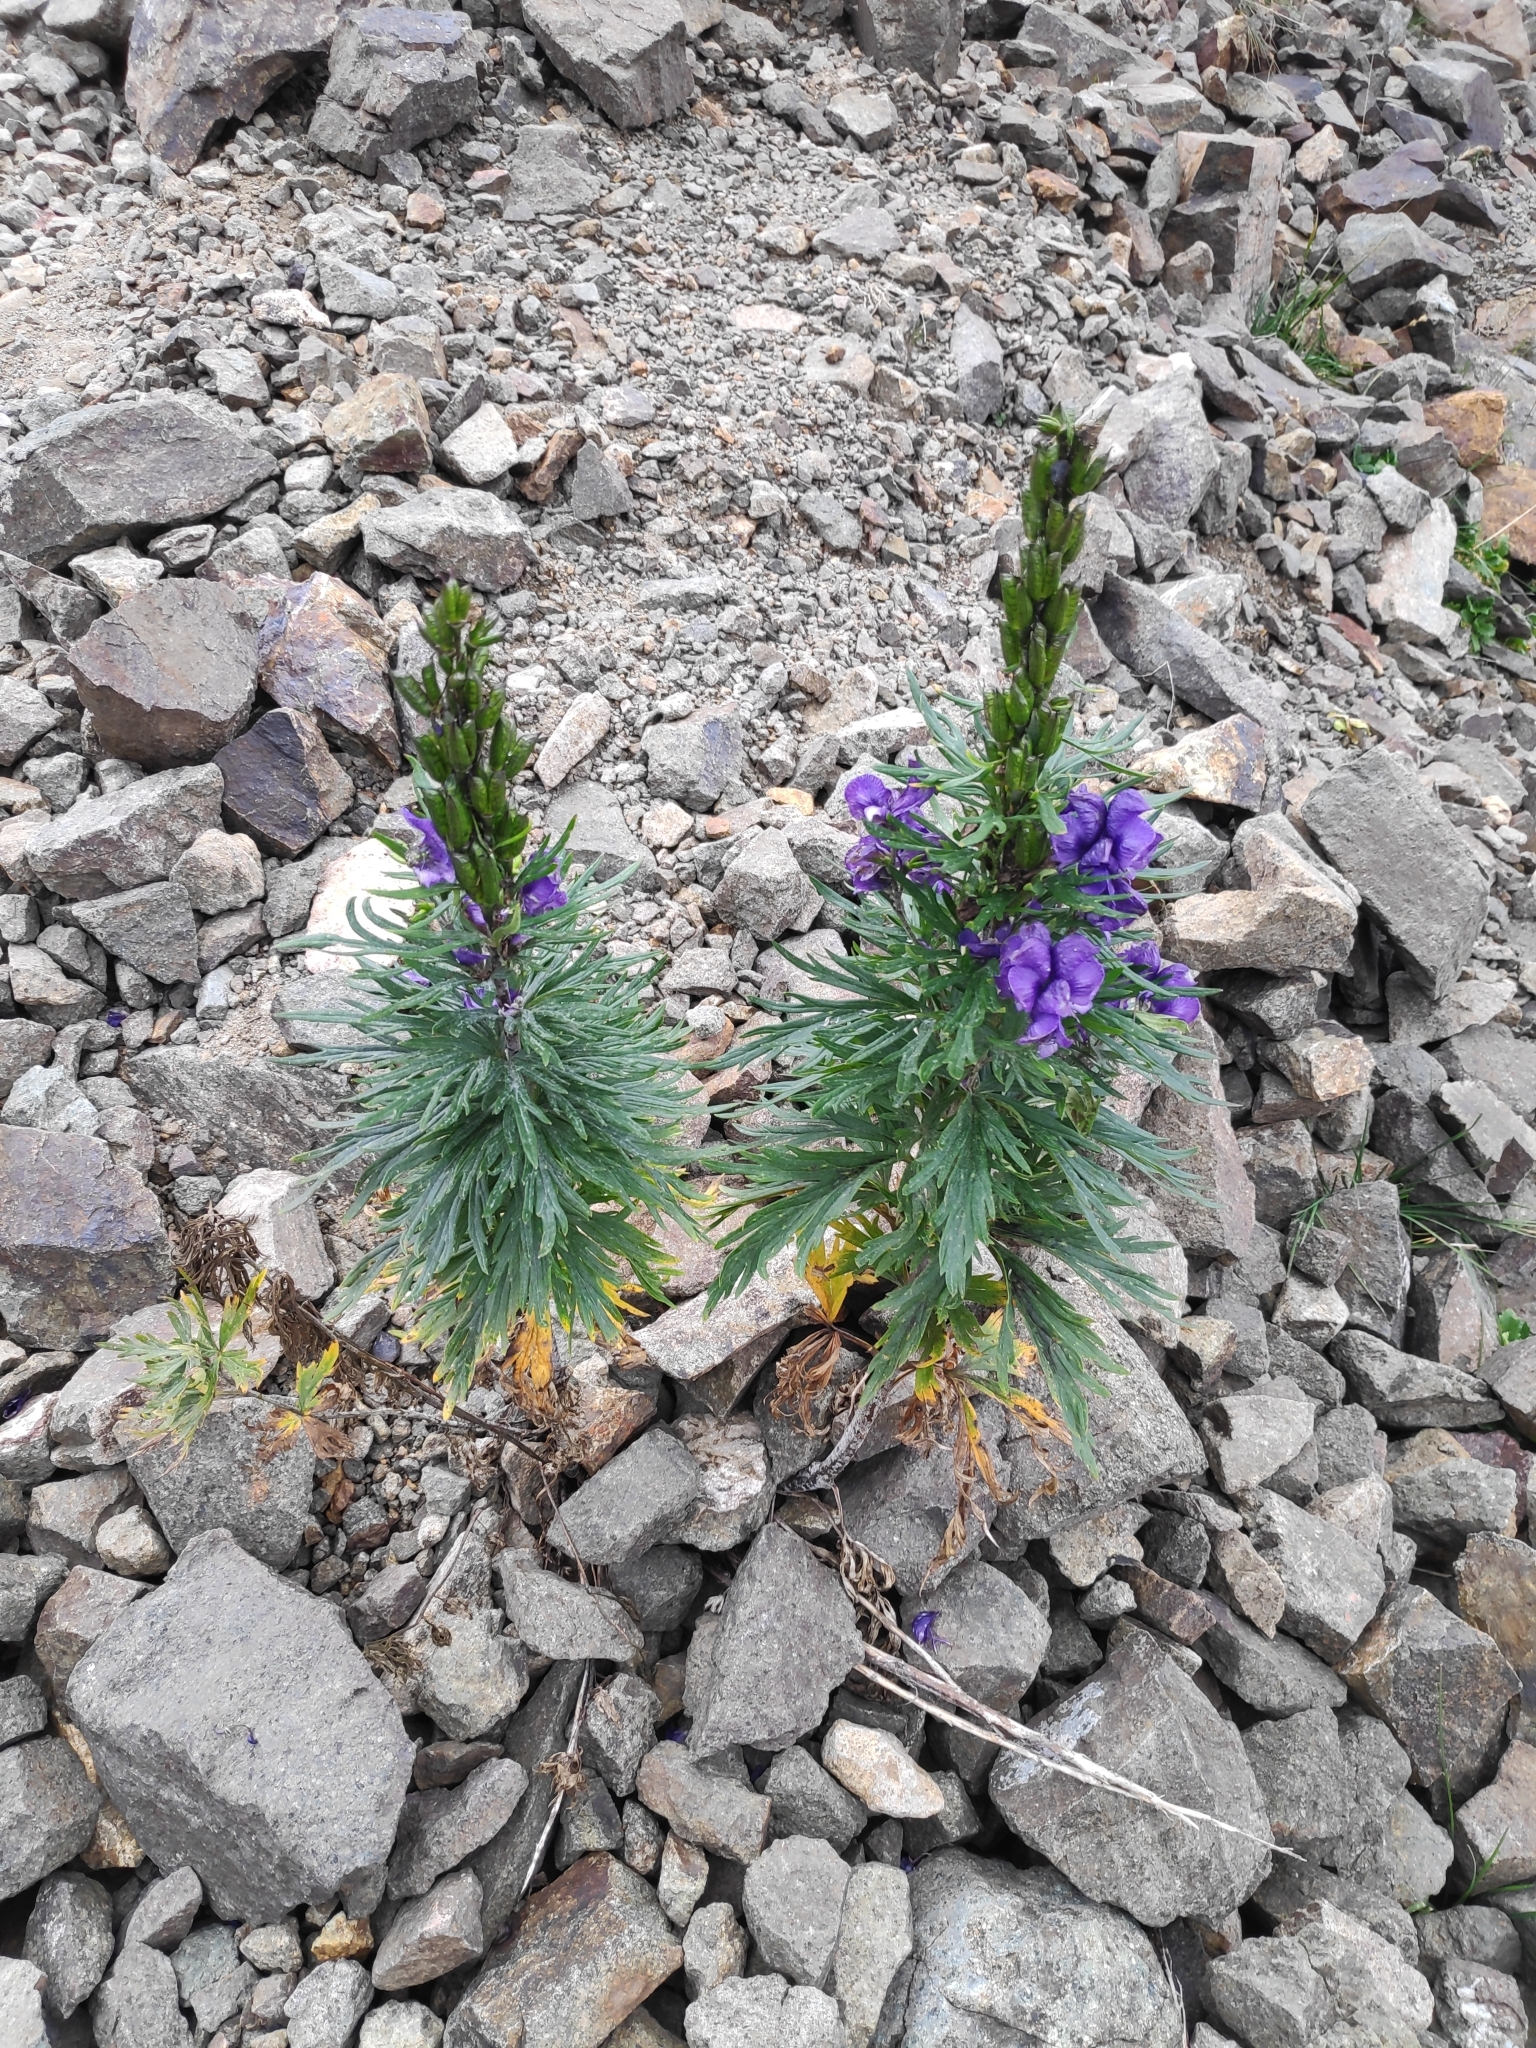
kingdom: Plantae
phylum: Tracheophyta
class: Magnoliopsida
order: Ranunculales
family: Ranunculaceae
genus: Aconitum
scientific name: Aconitum tauricum
